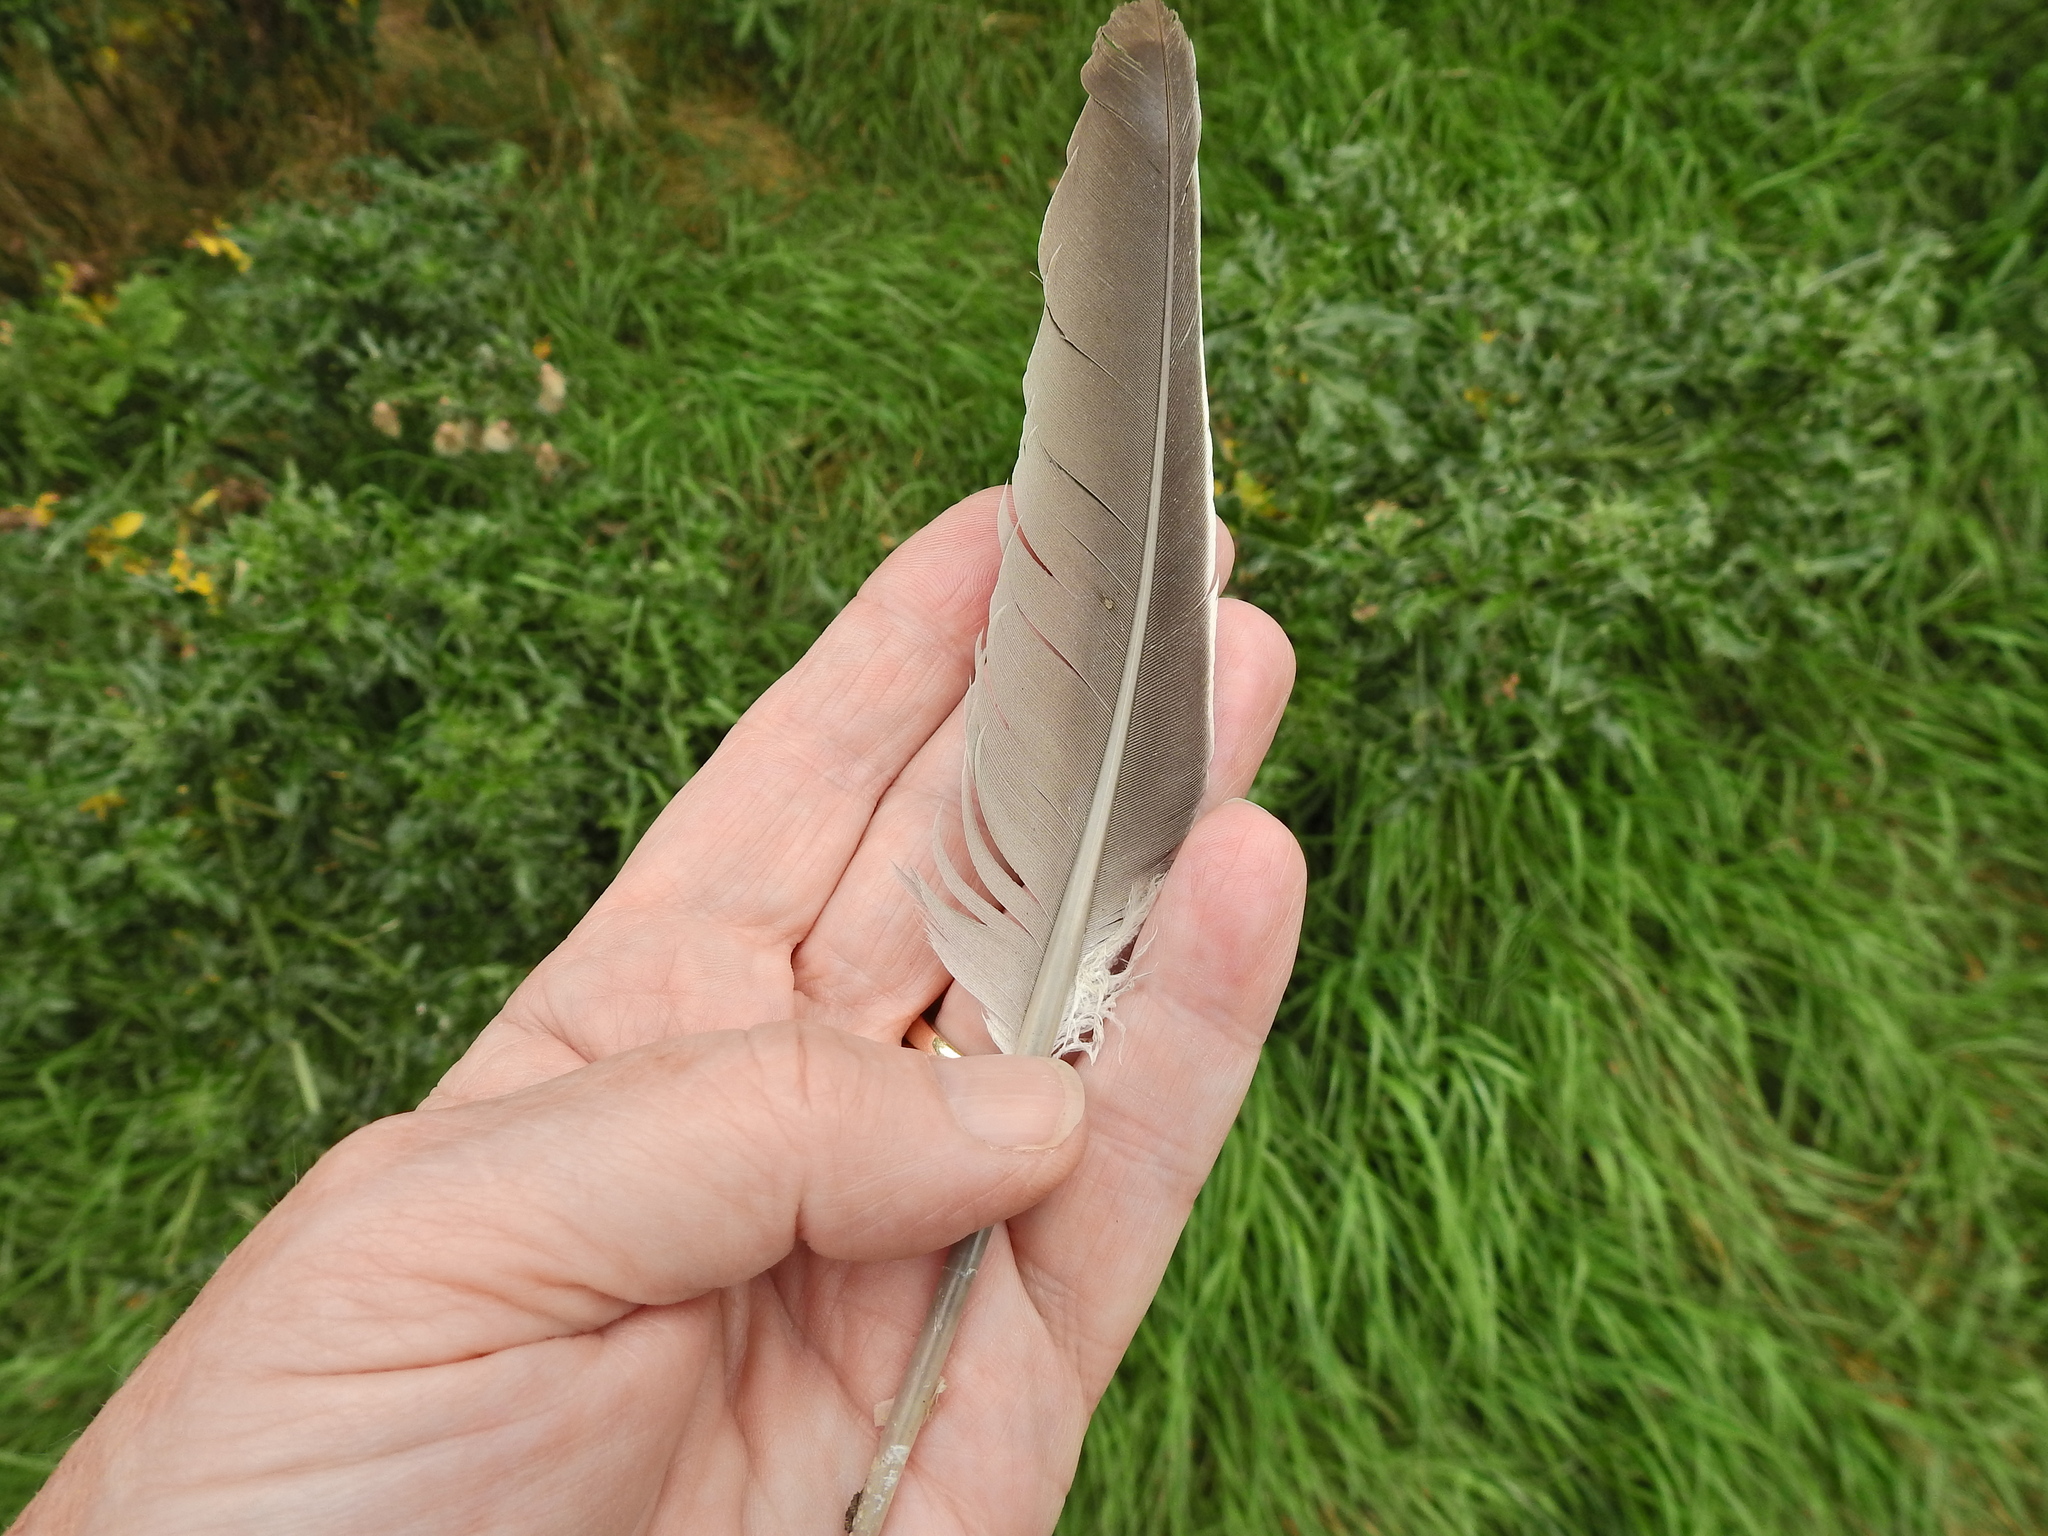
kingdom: Animalia
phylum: Chordata
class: Aves
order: Columbiformes
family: Columbidae
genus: Columba
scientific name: Columba palumbus
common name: Common wood pigeon
